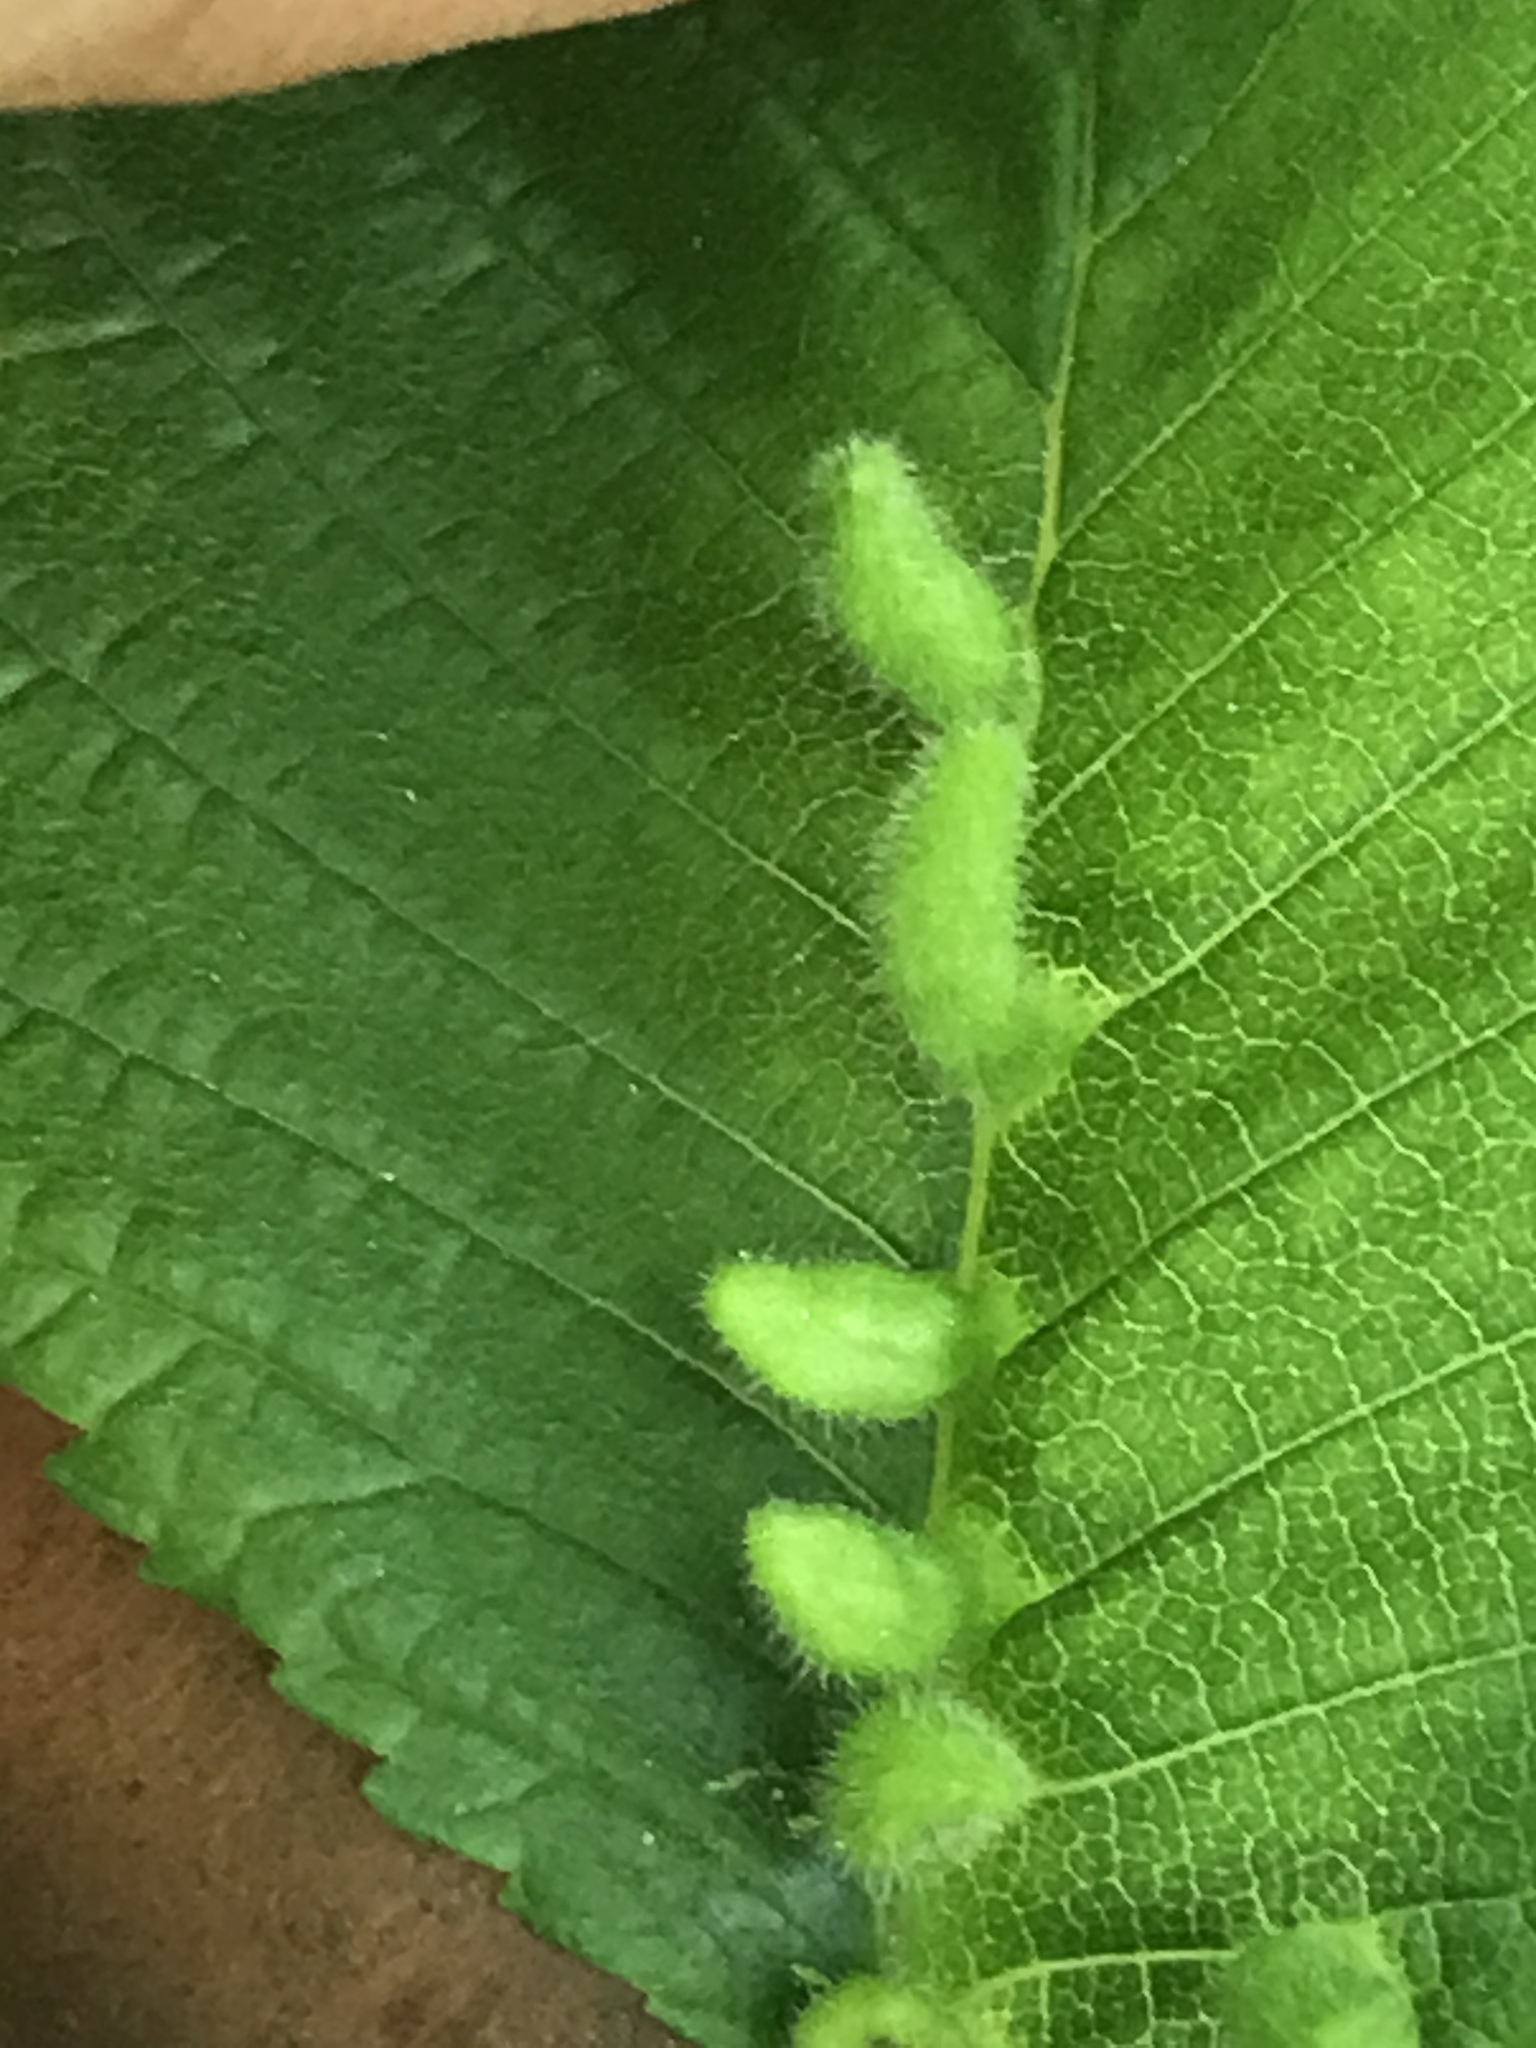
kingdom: Animalia
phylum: Arthropoda
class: Arachnida
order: Trombidiformes
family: Eriophyidae
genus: Aceria
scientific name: Aceria
